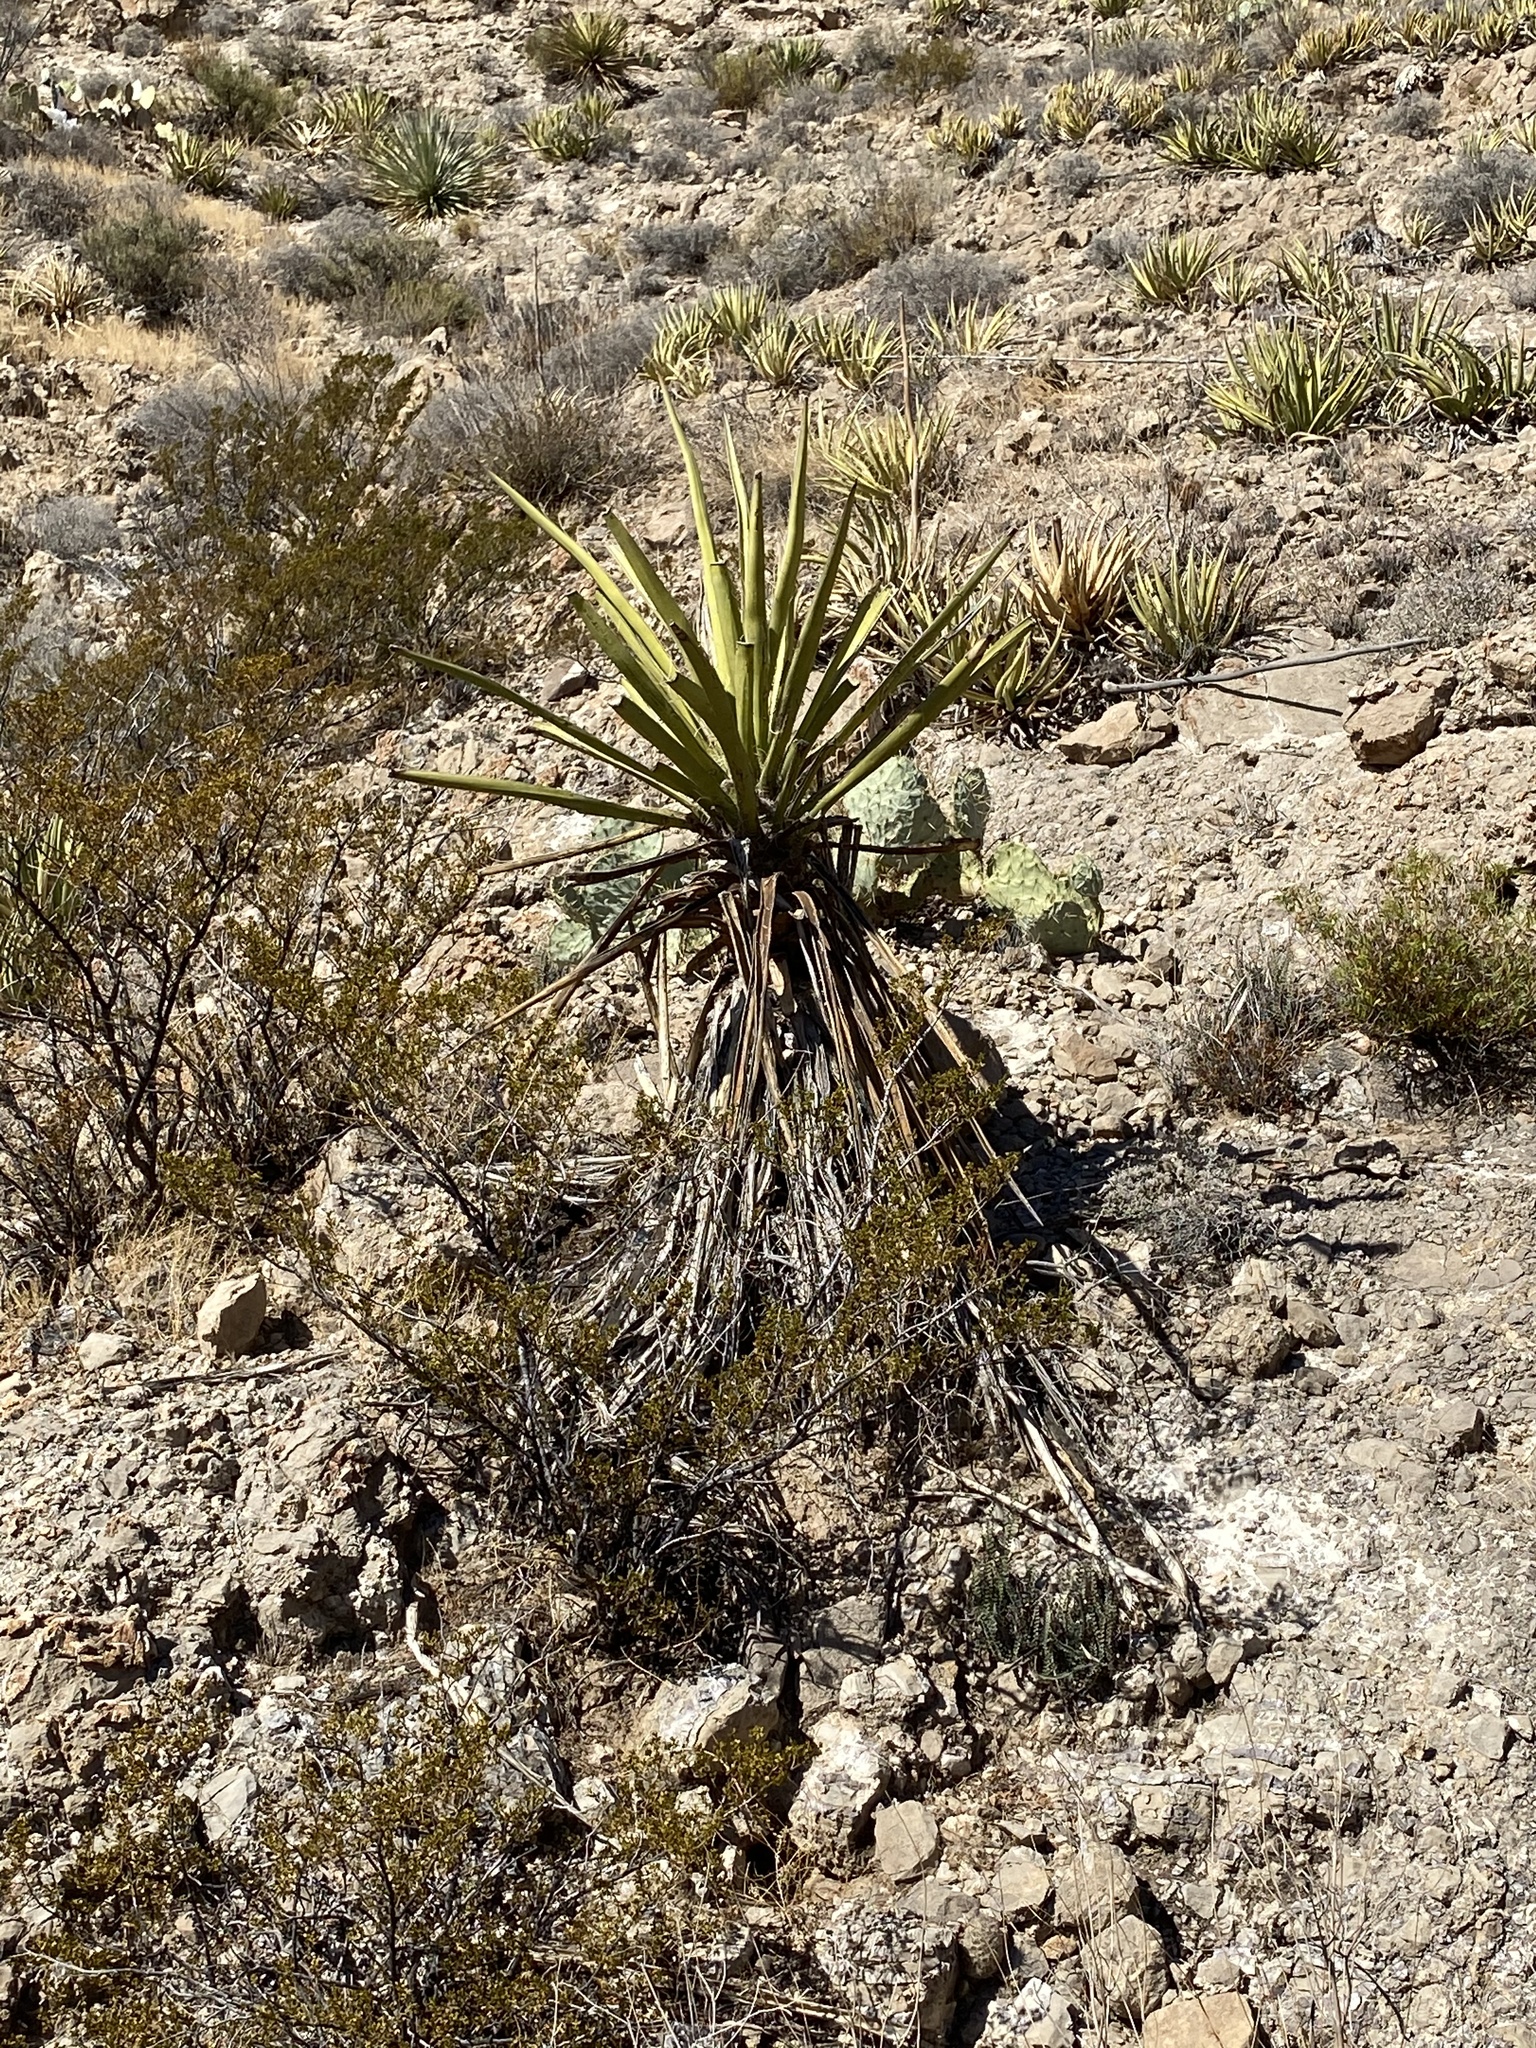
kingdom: Plantae
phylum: Tracheophyta
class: Liliopsida
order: Asparagales
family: Asparagaceae
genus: Yucca
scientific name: Yucca treculiana
